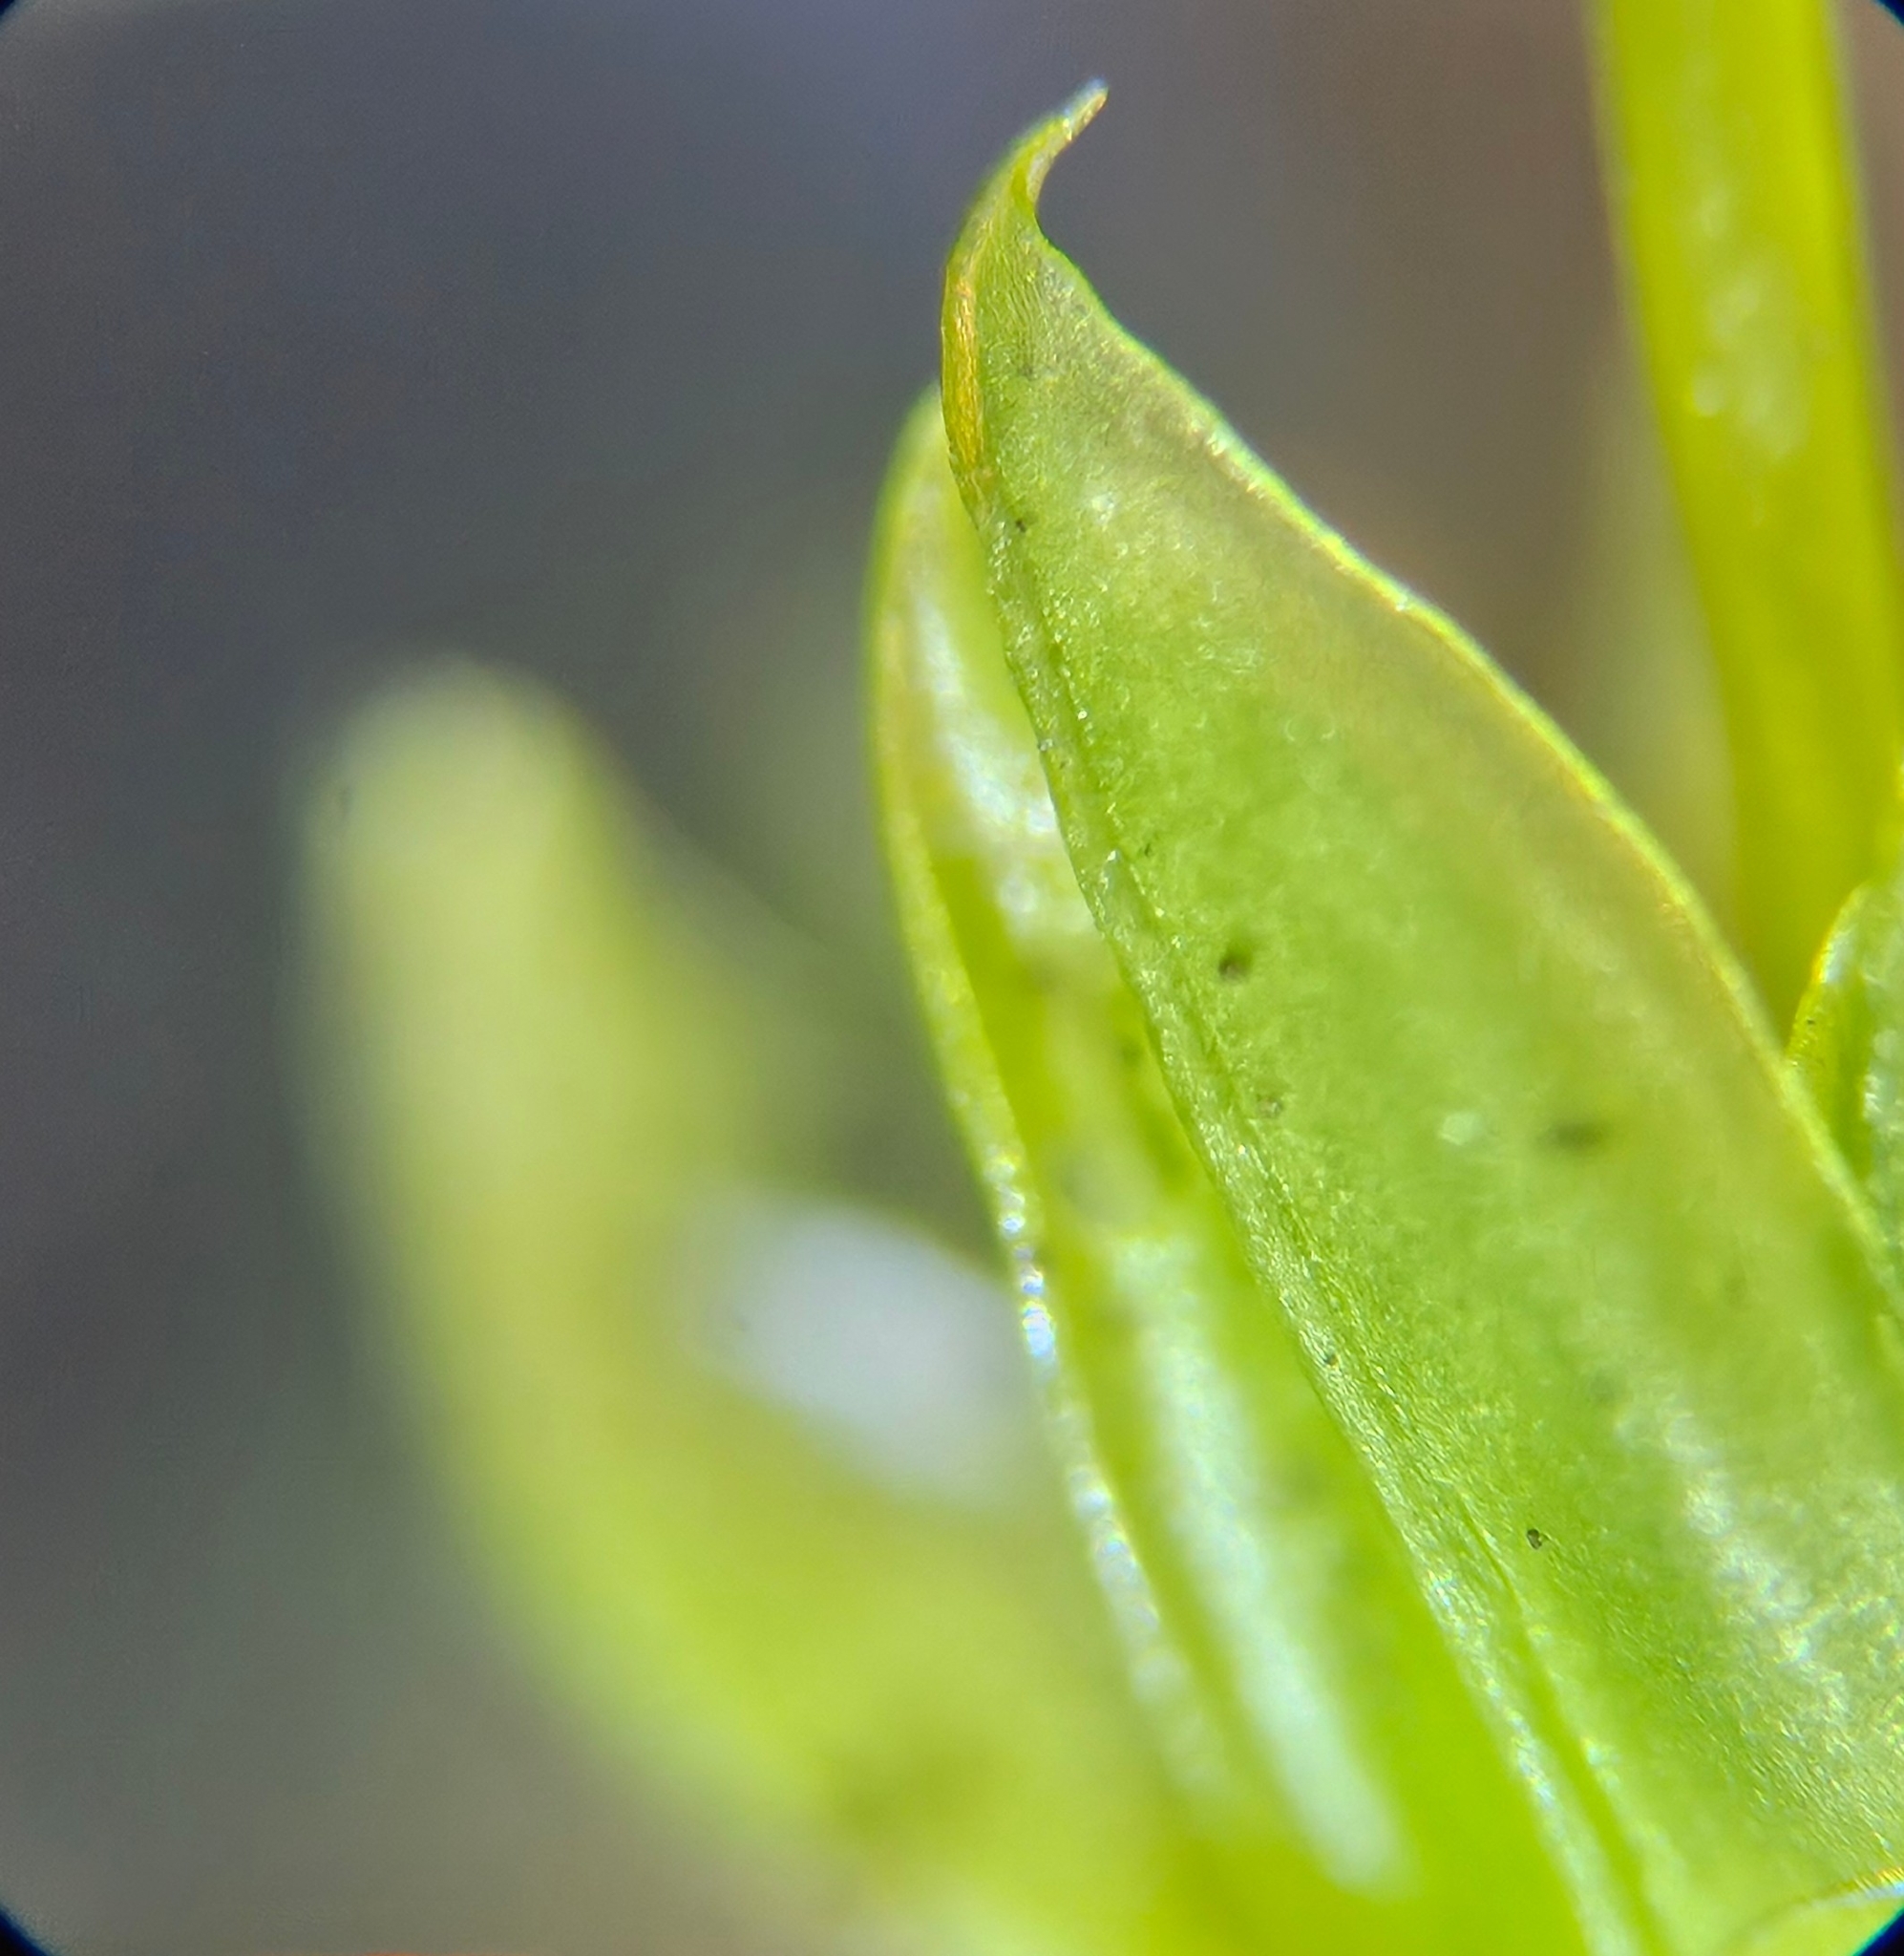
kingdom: Plantae
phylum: Bryophyta
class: Bryopsida
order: Pottiales
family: Pottiaceae
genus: Tortula
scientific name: Tortula subulata
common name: Upright screw-moss
